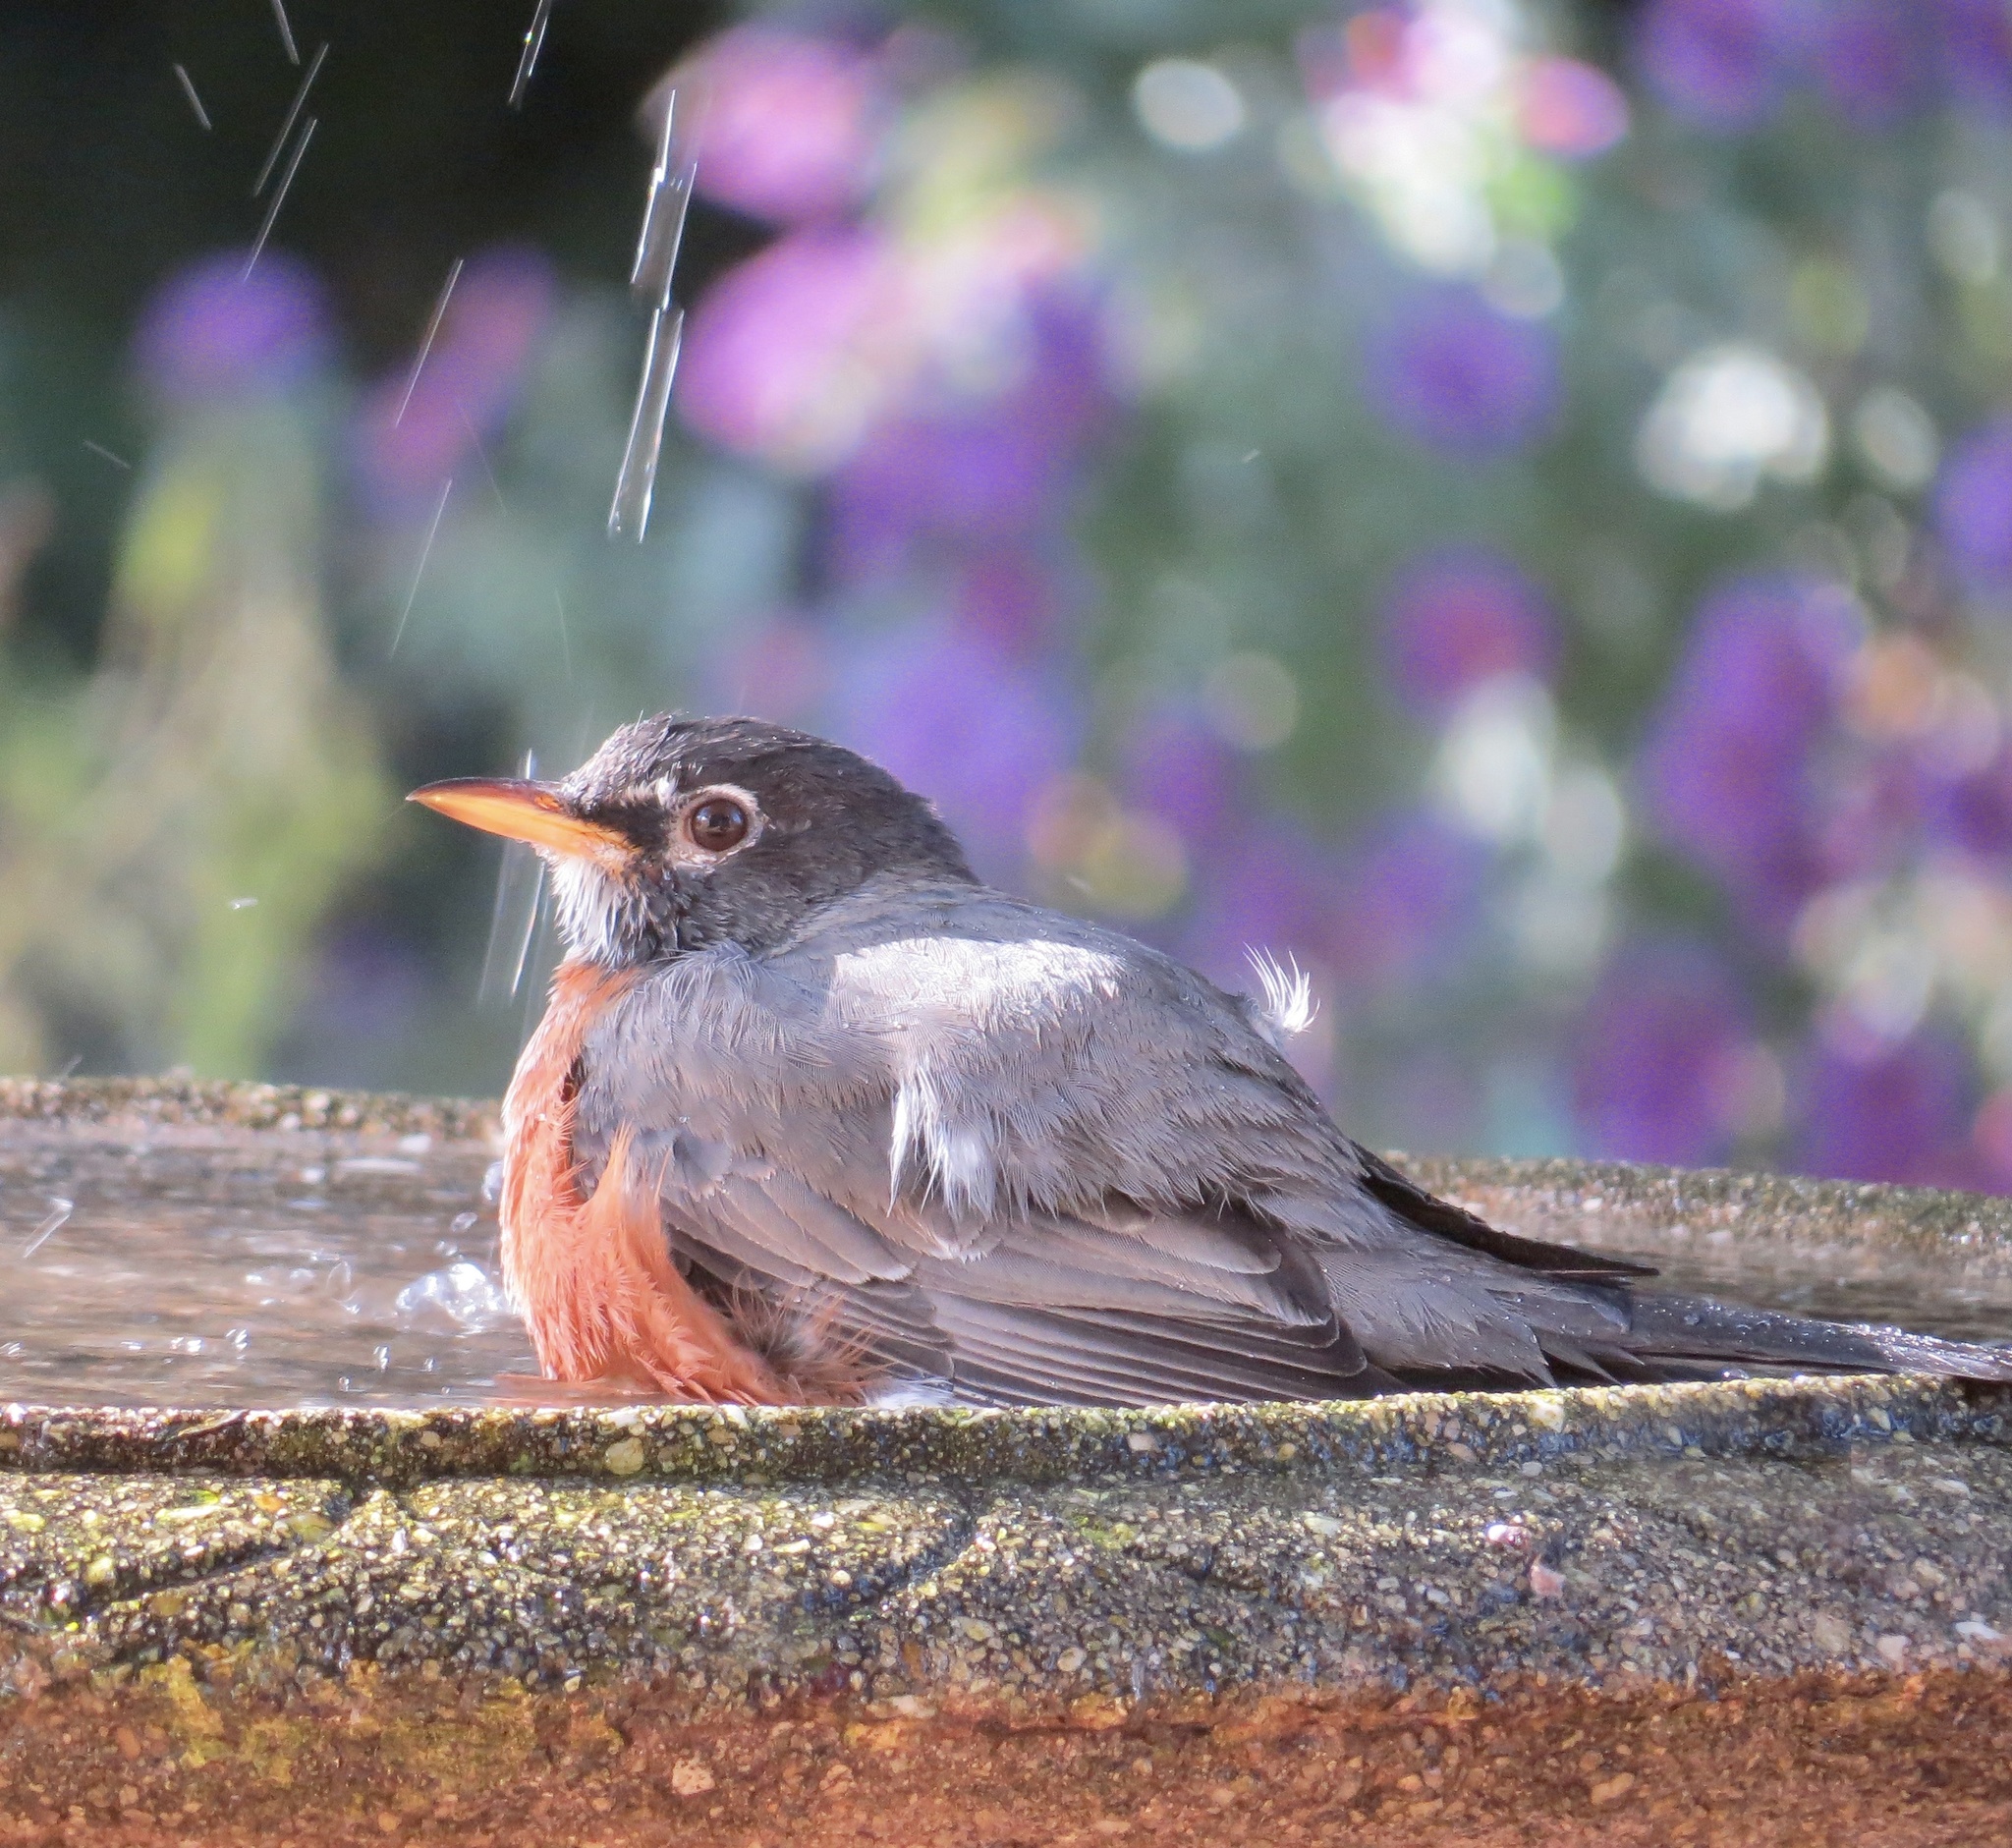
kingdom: Animalia
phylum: Chordata
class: Aves
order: Passeriformes
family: Turdidae
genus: Turdus
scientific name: Turdus migratorius
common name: American robin
